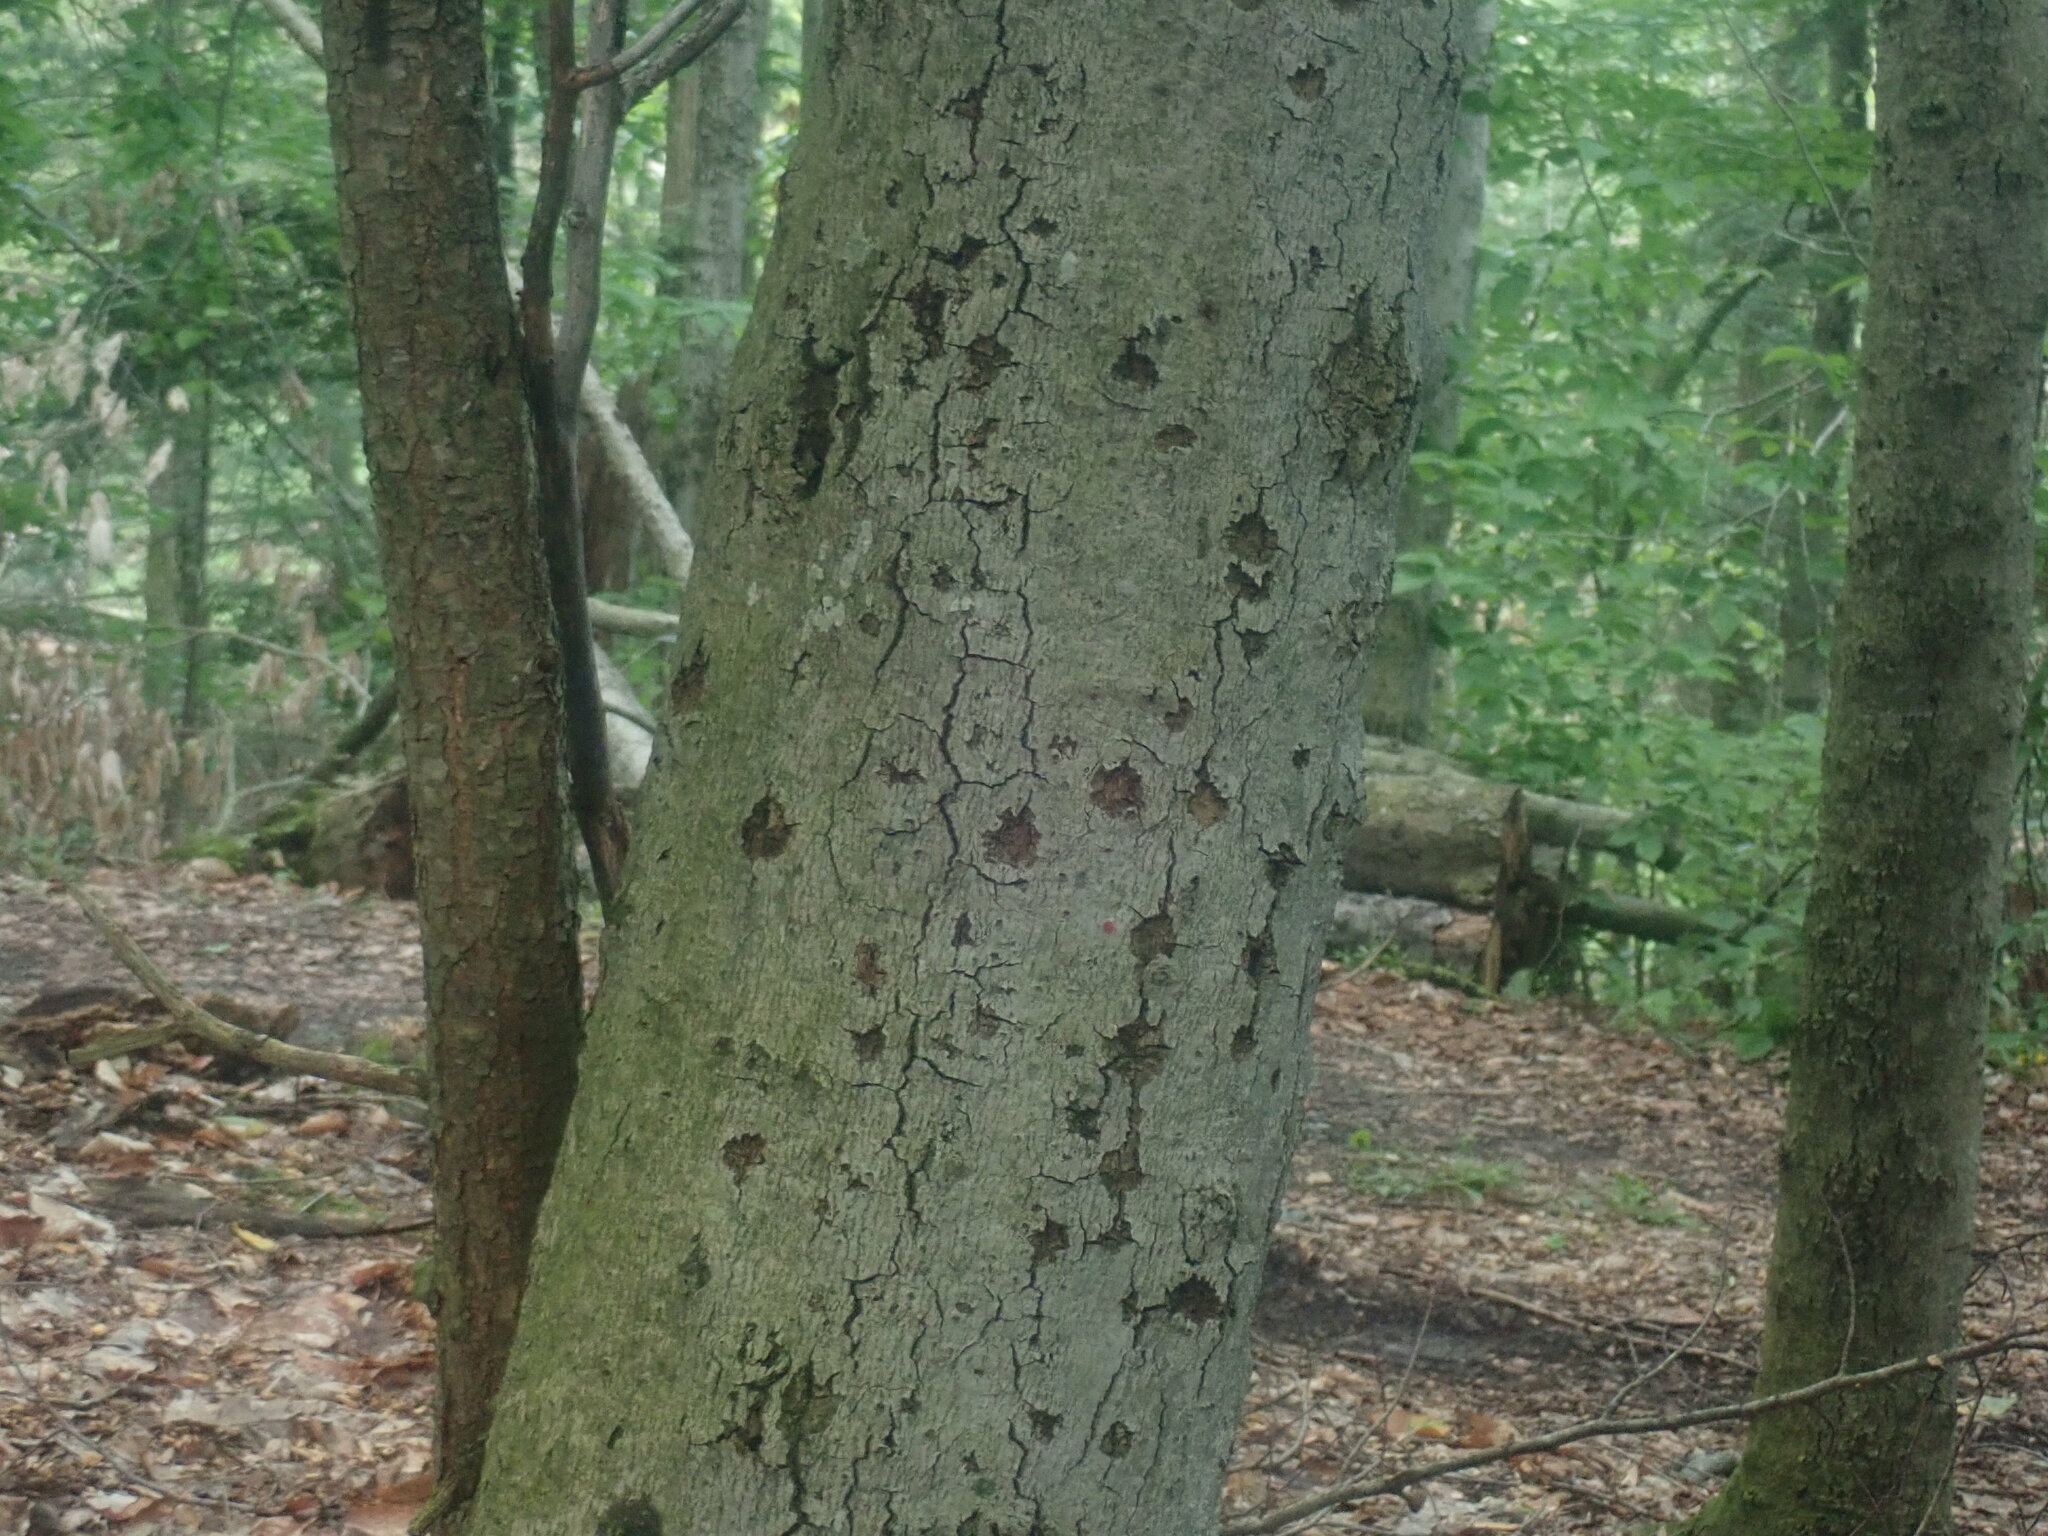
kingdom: Fungi
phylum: Ascomycota
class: Sordariomycetes
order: Hypocreales
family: Nectriaceae
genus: Neonectria
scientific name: Neonectria faginata
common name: Beech bark canker
